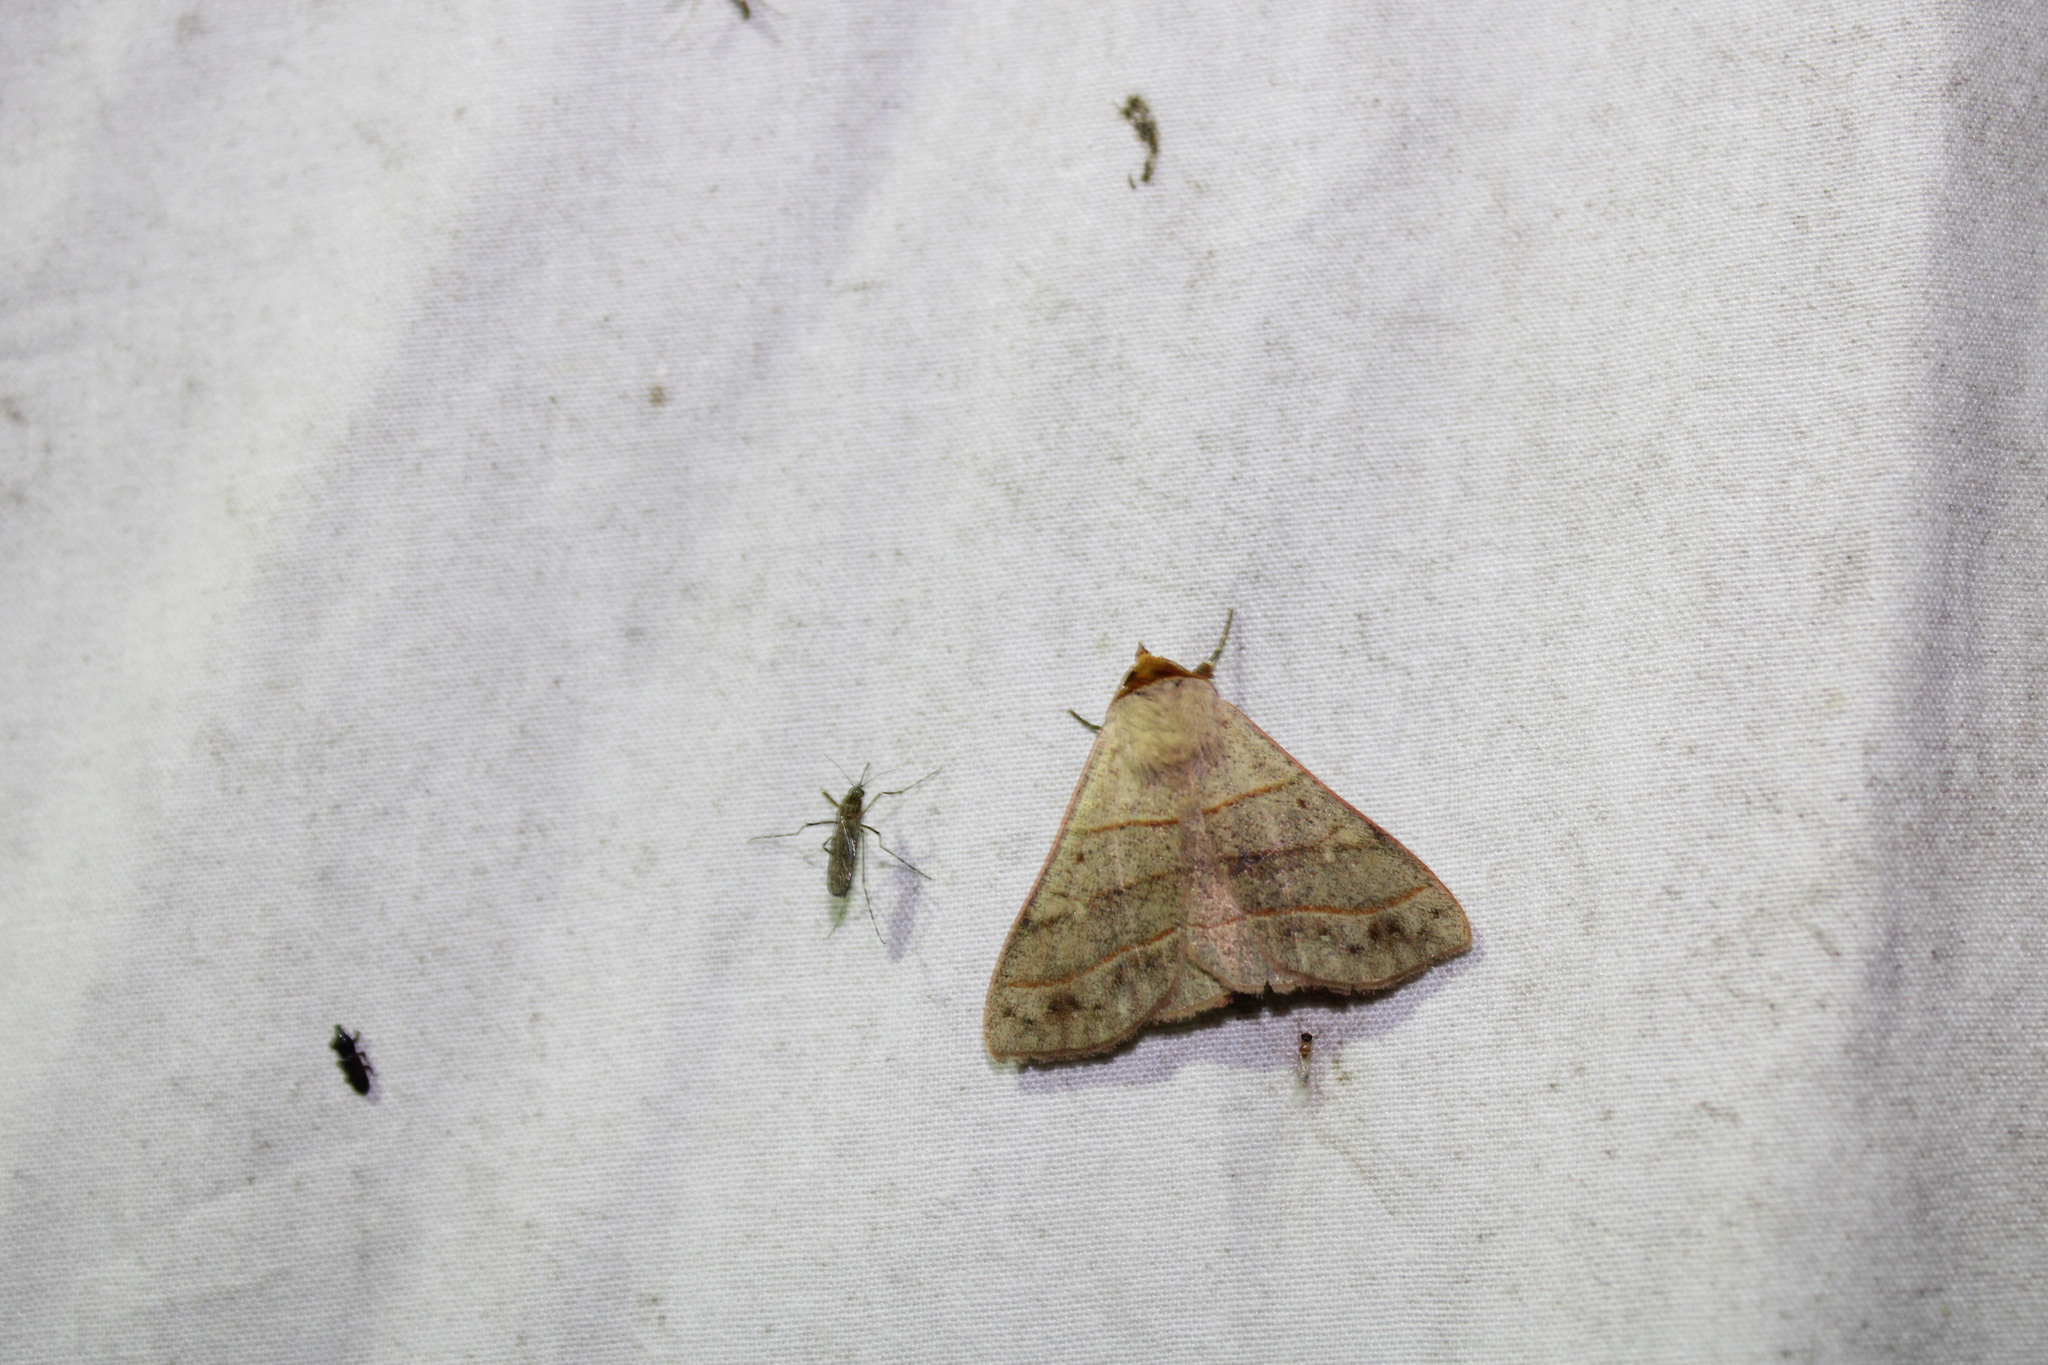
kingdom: Animalia
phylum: Arthropoda
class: Insecta
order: Lepidoptera
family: Erebidae
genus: Panopoda
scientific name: Panopoda rufimargo
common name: Red-lined panopoda moth
